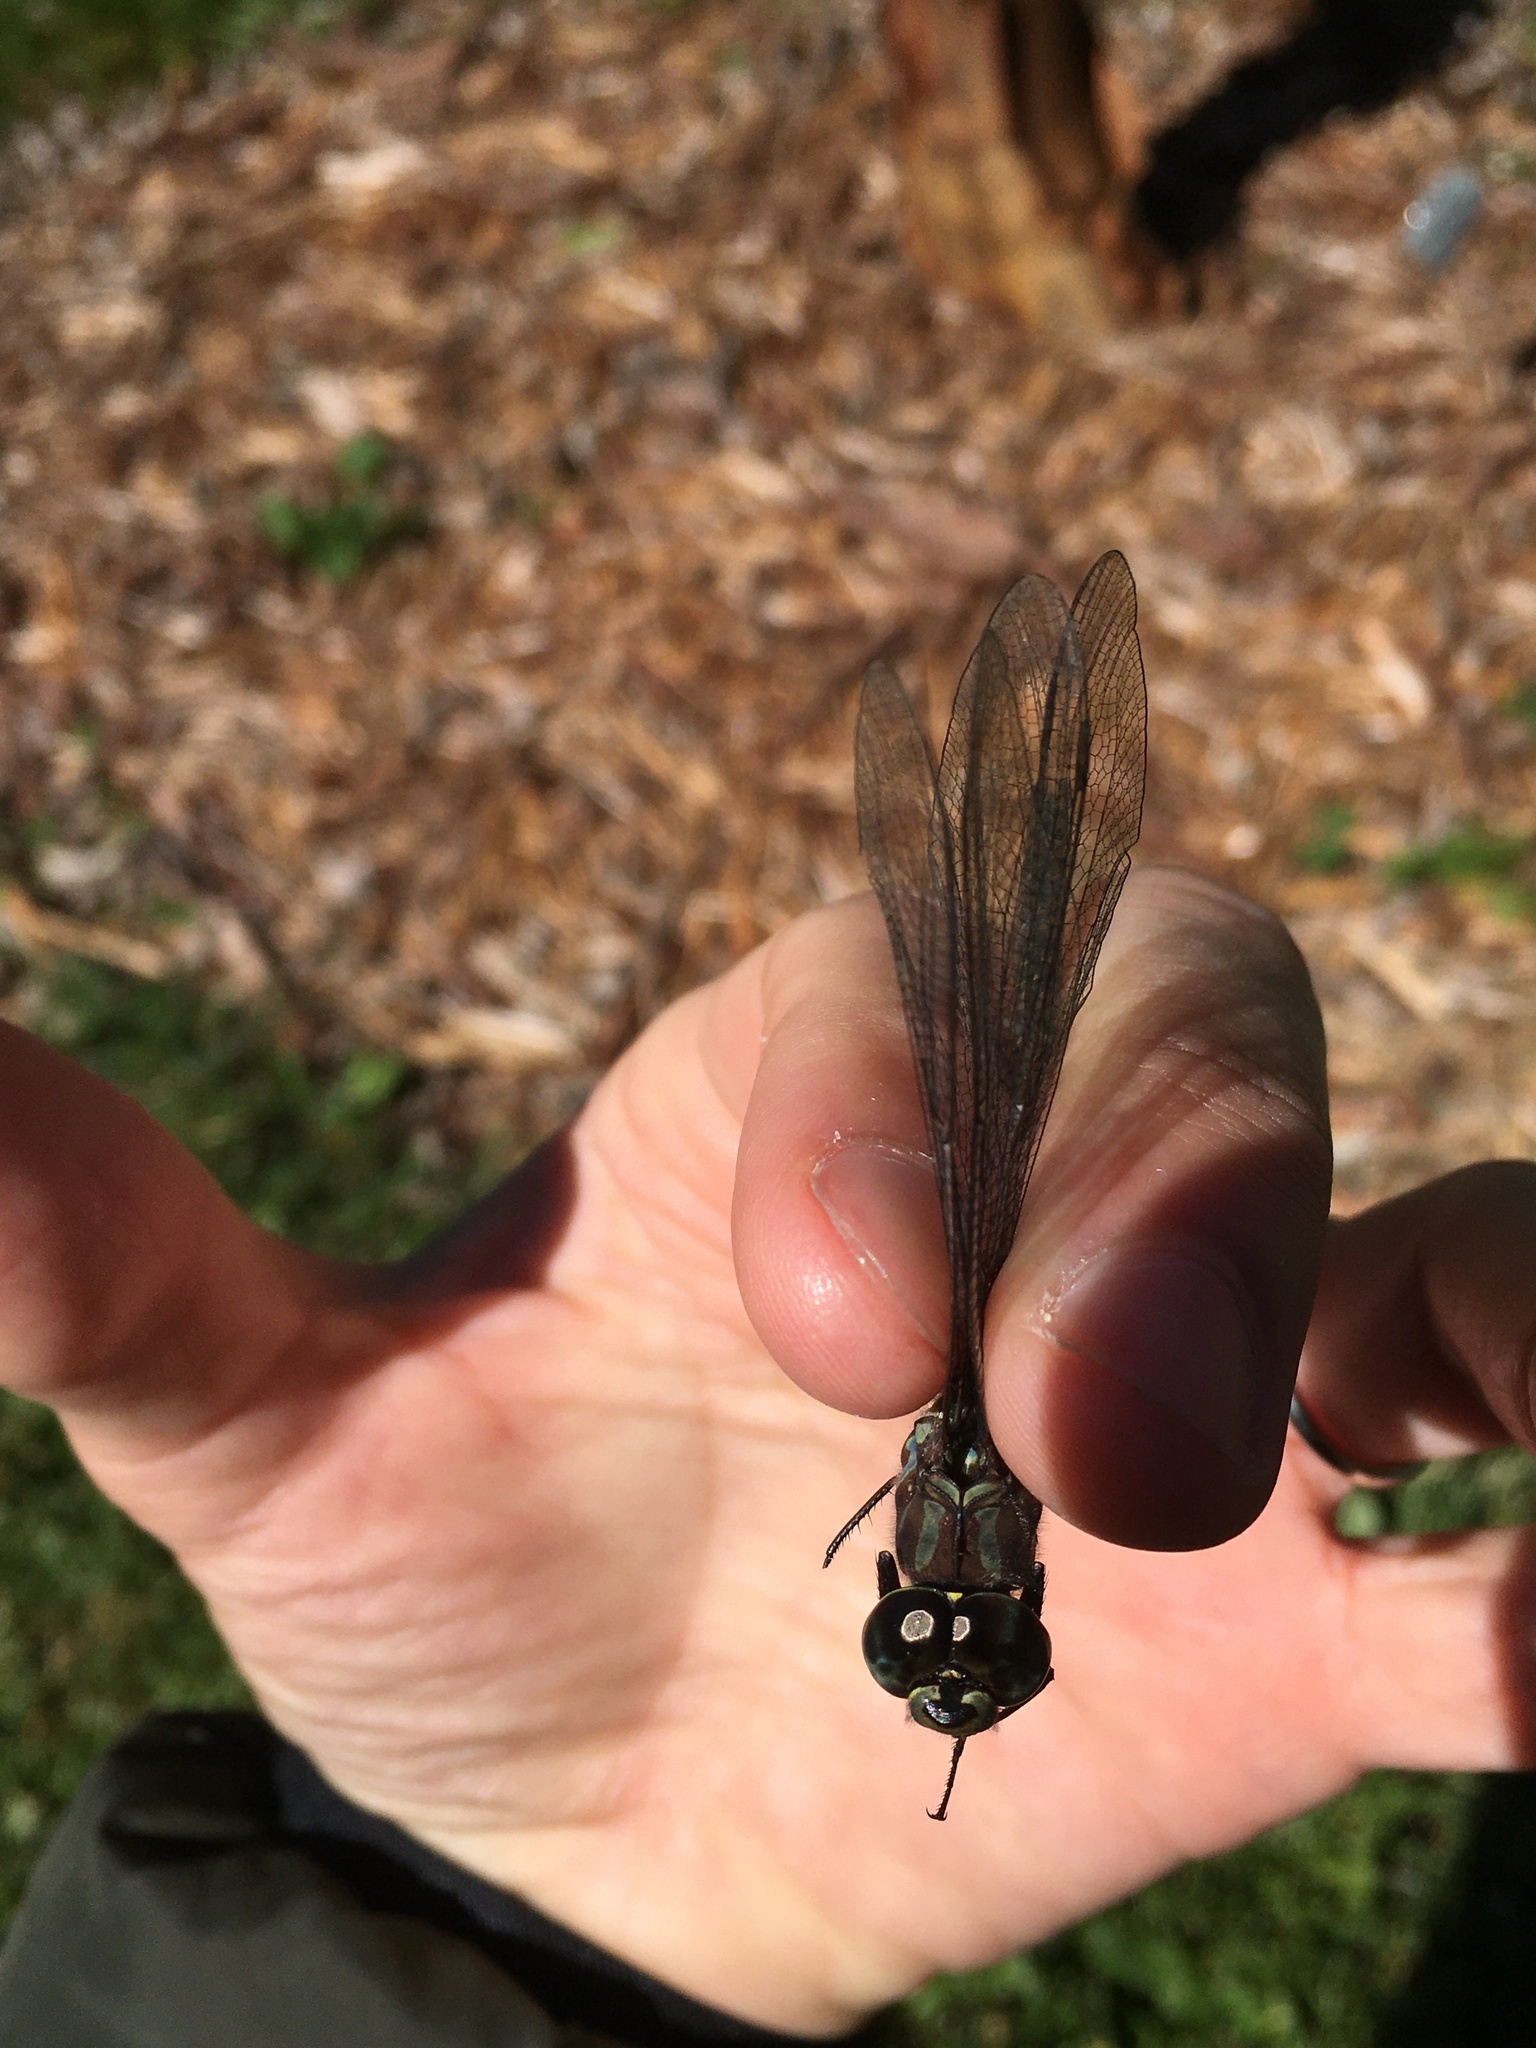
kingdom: Animalia
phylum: Arthropoda
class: Insecta
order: Odonata
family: Aeshnidae
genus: Aeshna
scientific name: Aeshna canadensis
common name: Canada darner
